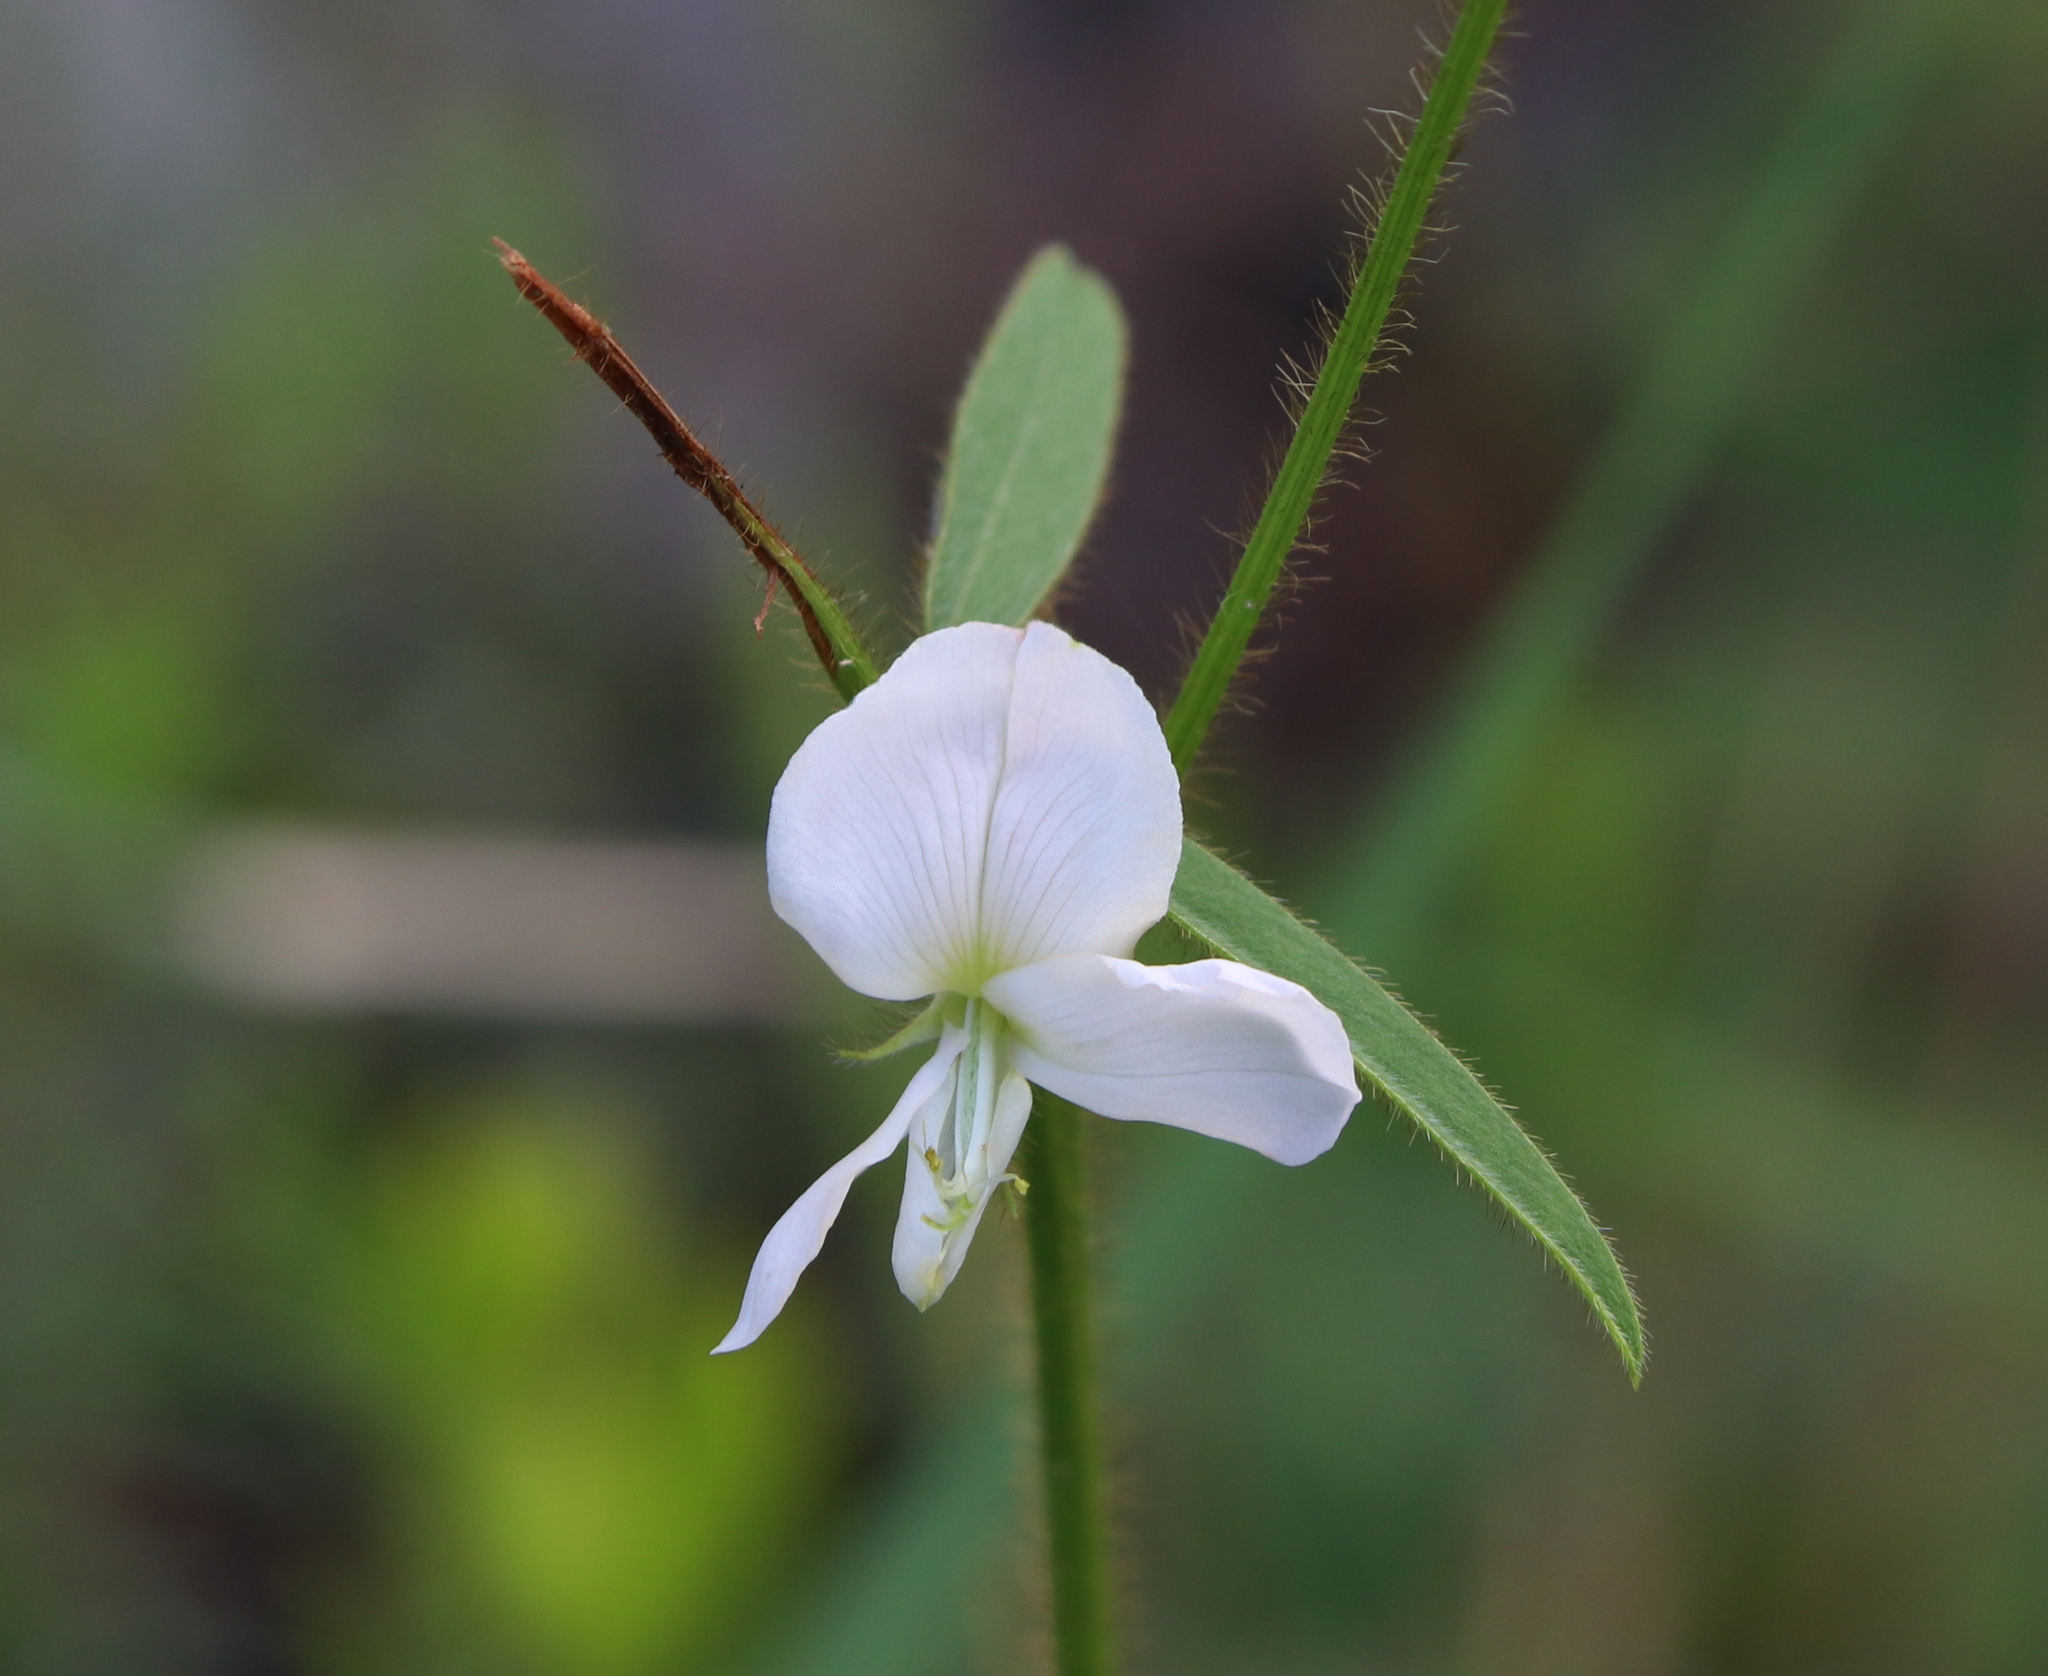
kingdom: Plantae
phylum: Tracheophyta
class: Magnoliopsida
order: Fabales
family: Fabaceae
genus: Tephrosia
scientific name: Tephrosia spicata
